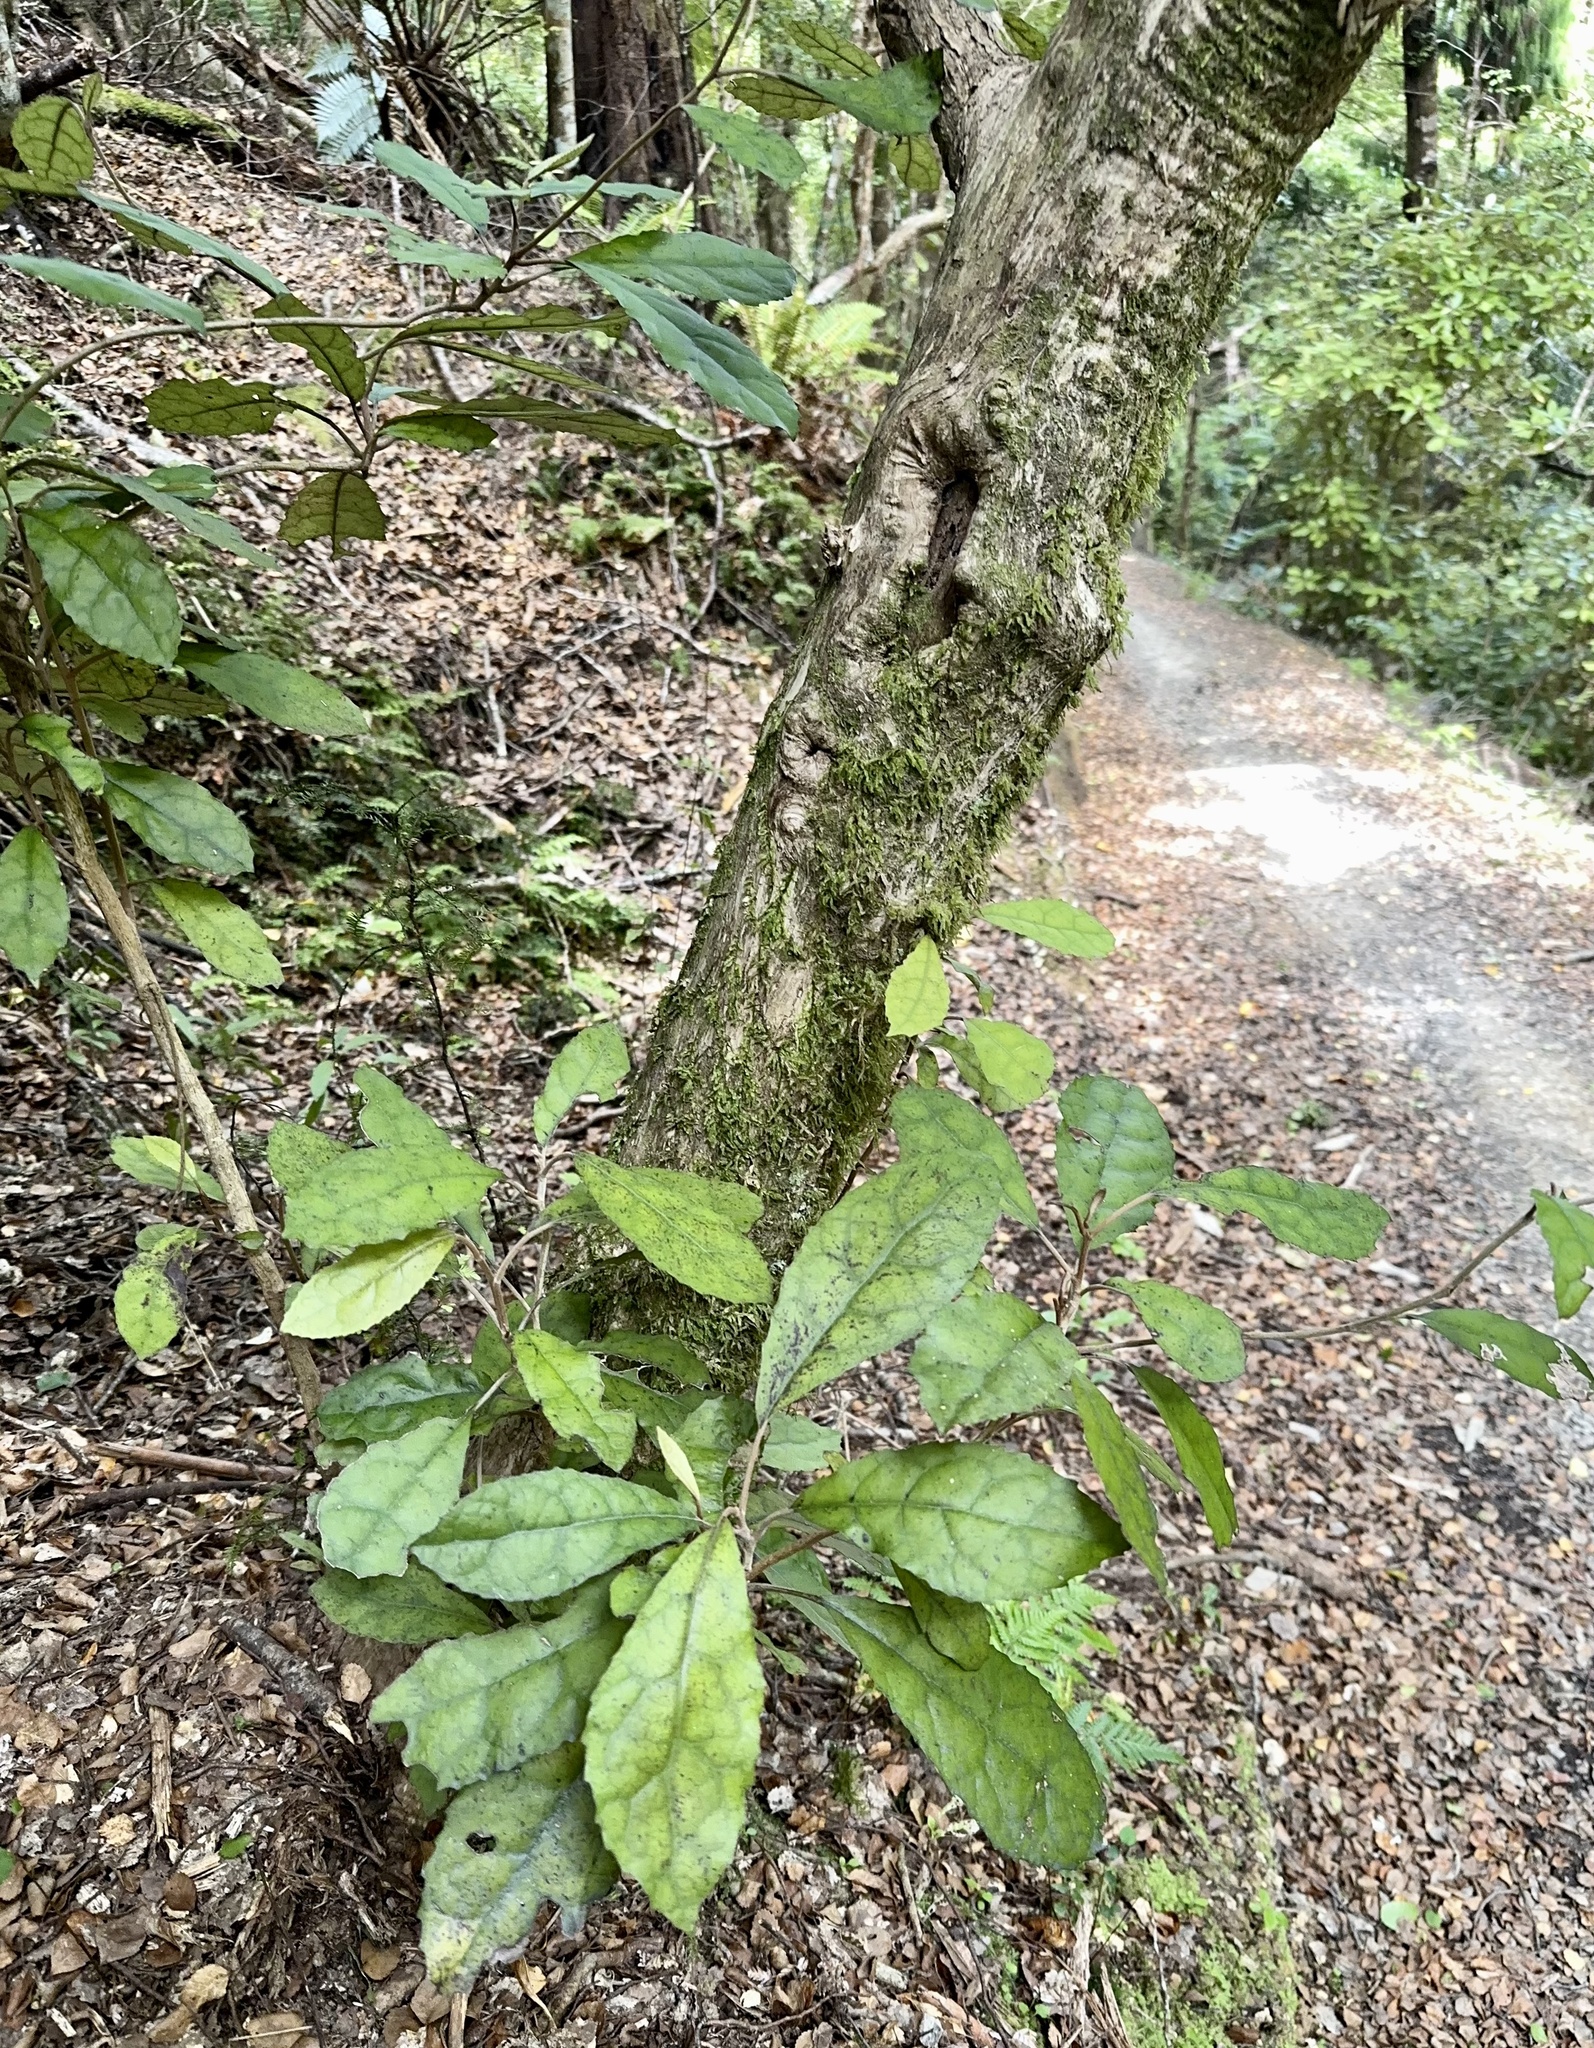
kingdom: Plantae
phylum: Tracheophyta
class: Magnoliopsida
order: Asterales
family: Asteraceae
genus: Olearia
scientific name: Olearia rani
